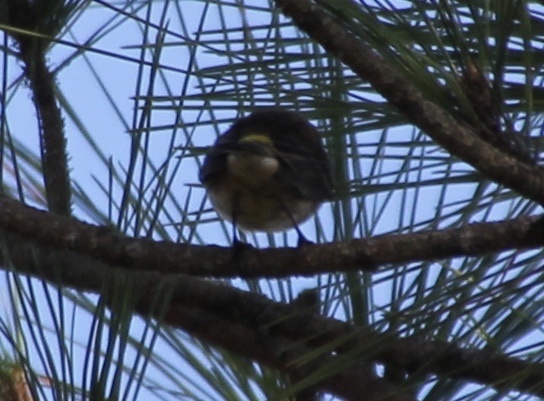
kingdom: Animalia
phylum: Chordata
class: Aves
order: Passeriformes
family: Parulidae
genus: Setophaga
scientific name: Setophaga coronata
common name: Myrtle warbler
